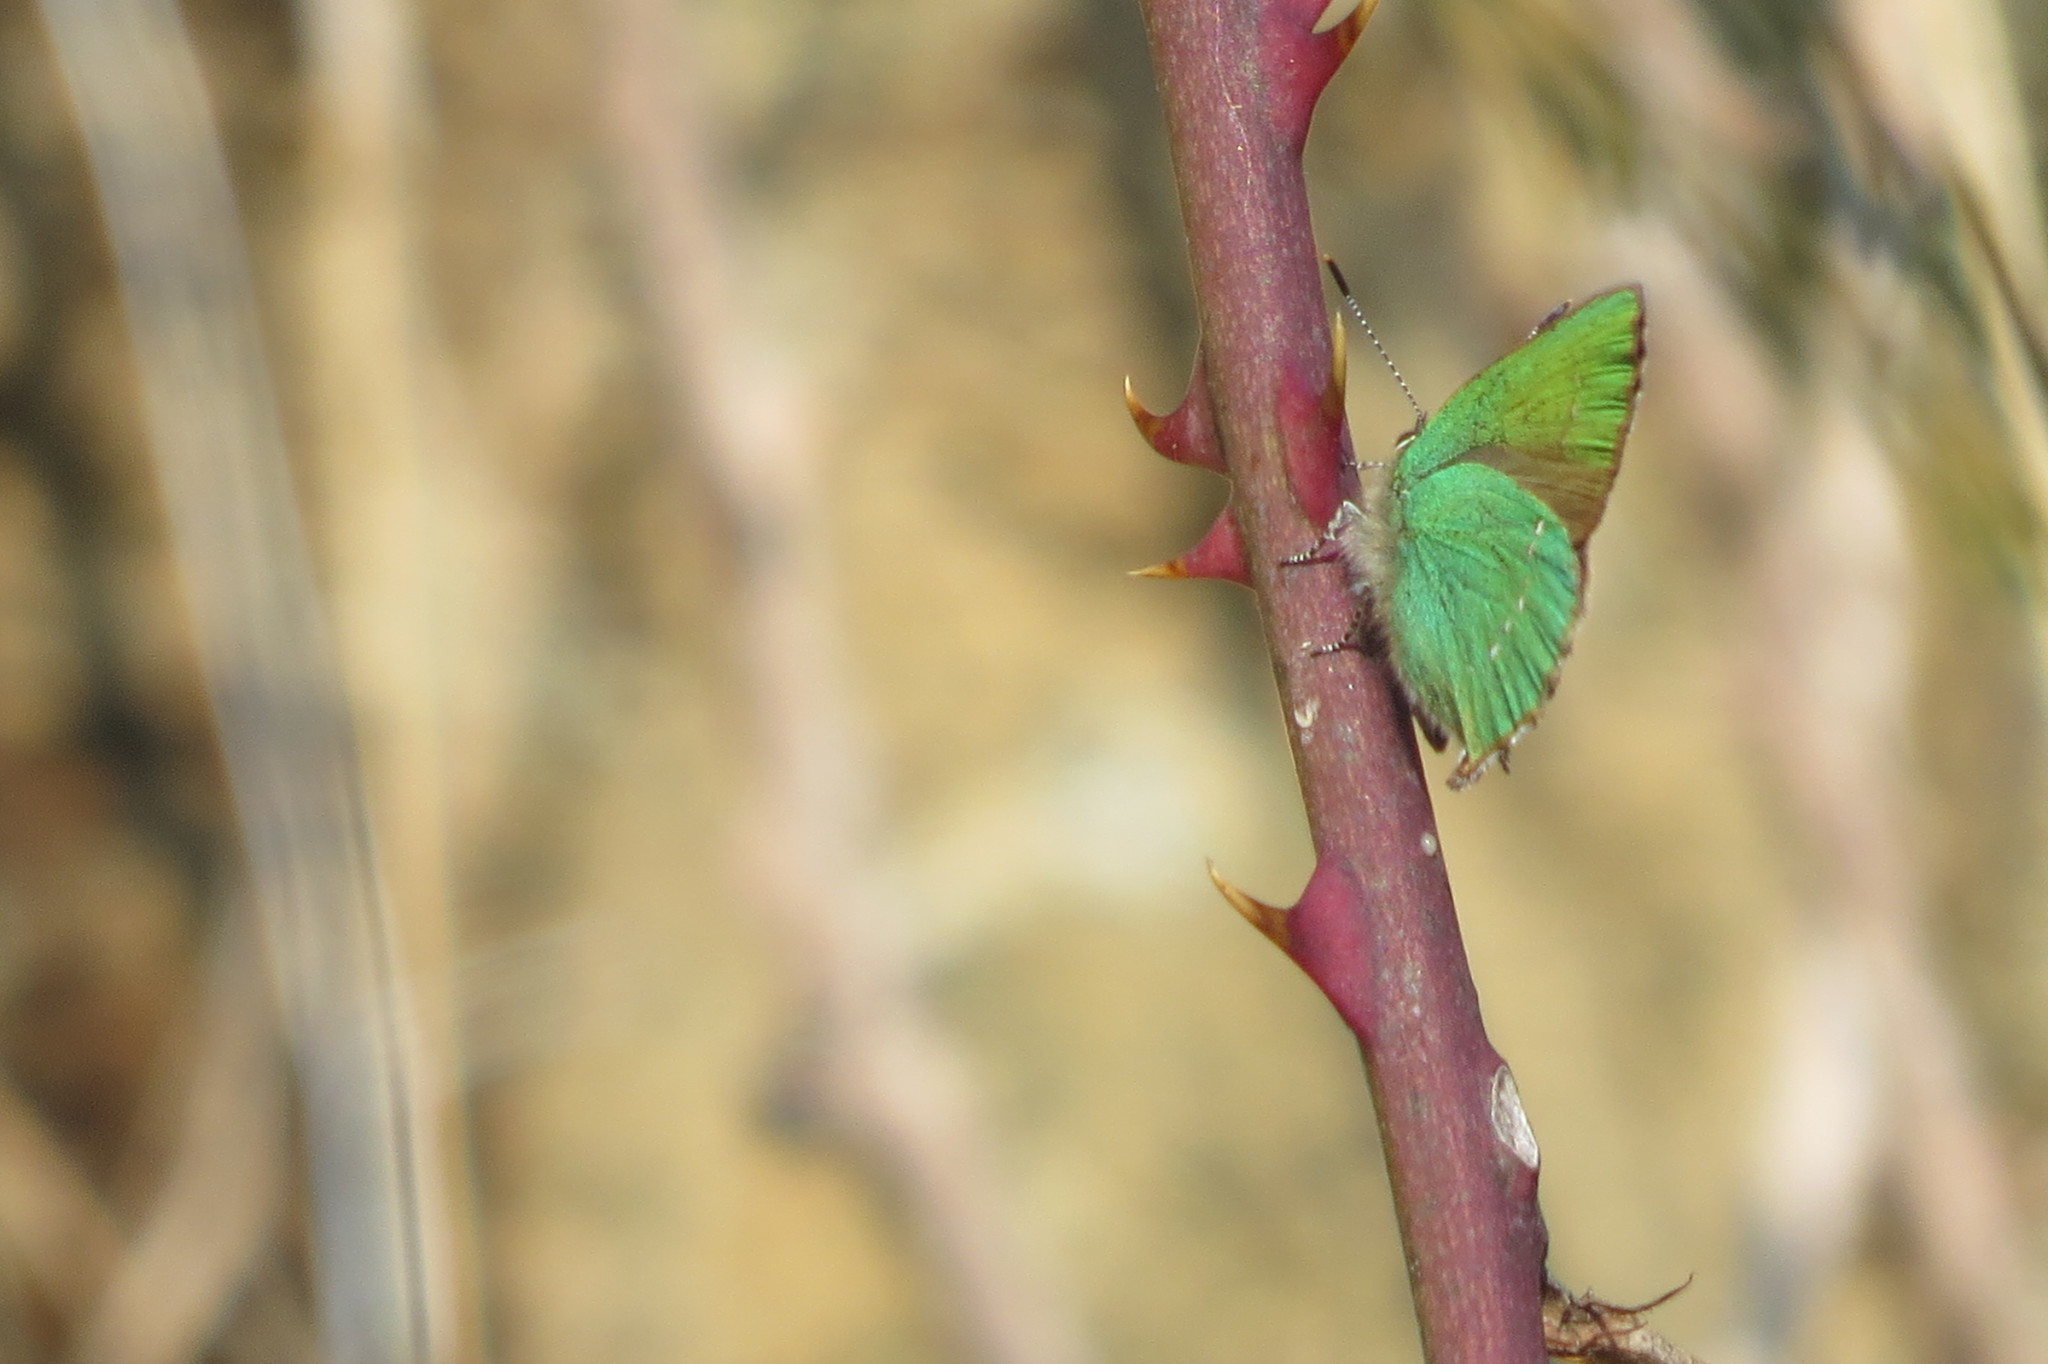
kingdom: Animalia
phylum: Arthropoda
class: Insecta
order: Lepidoptera
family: Lycaenidae
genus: Callophrys
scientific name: Callophrys rubi
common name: Green hairstreak
